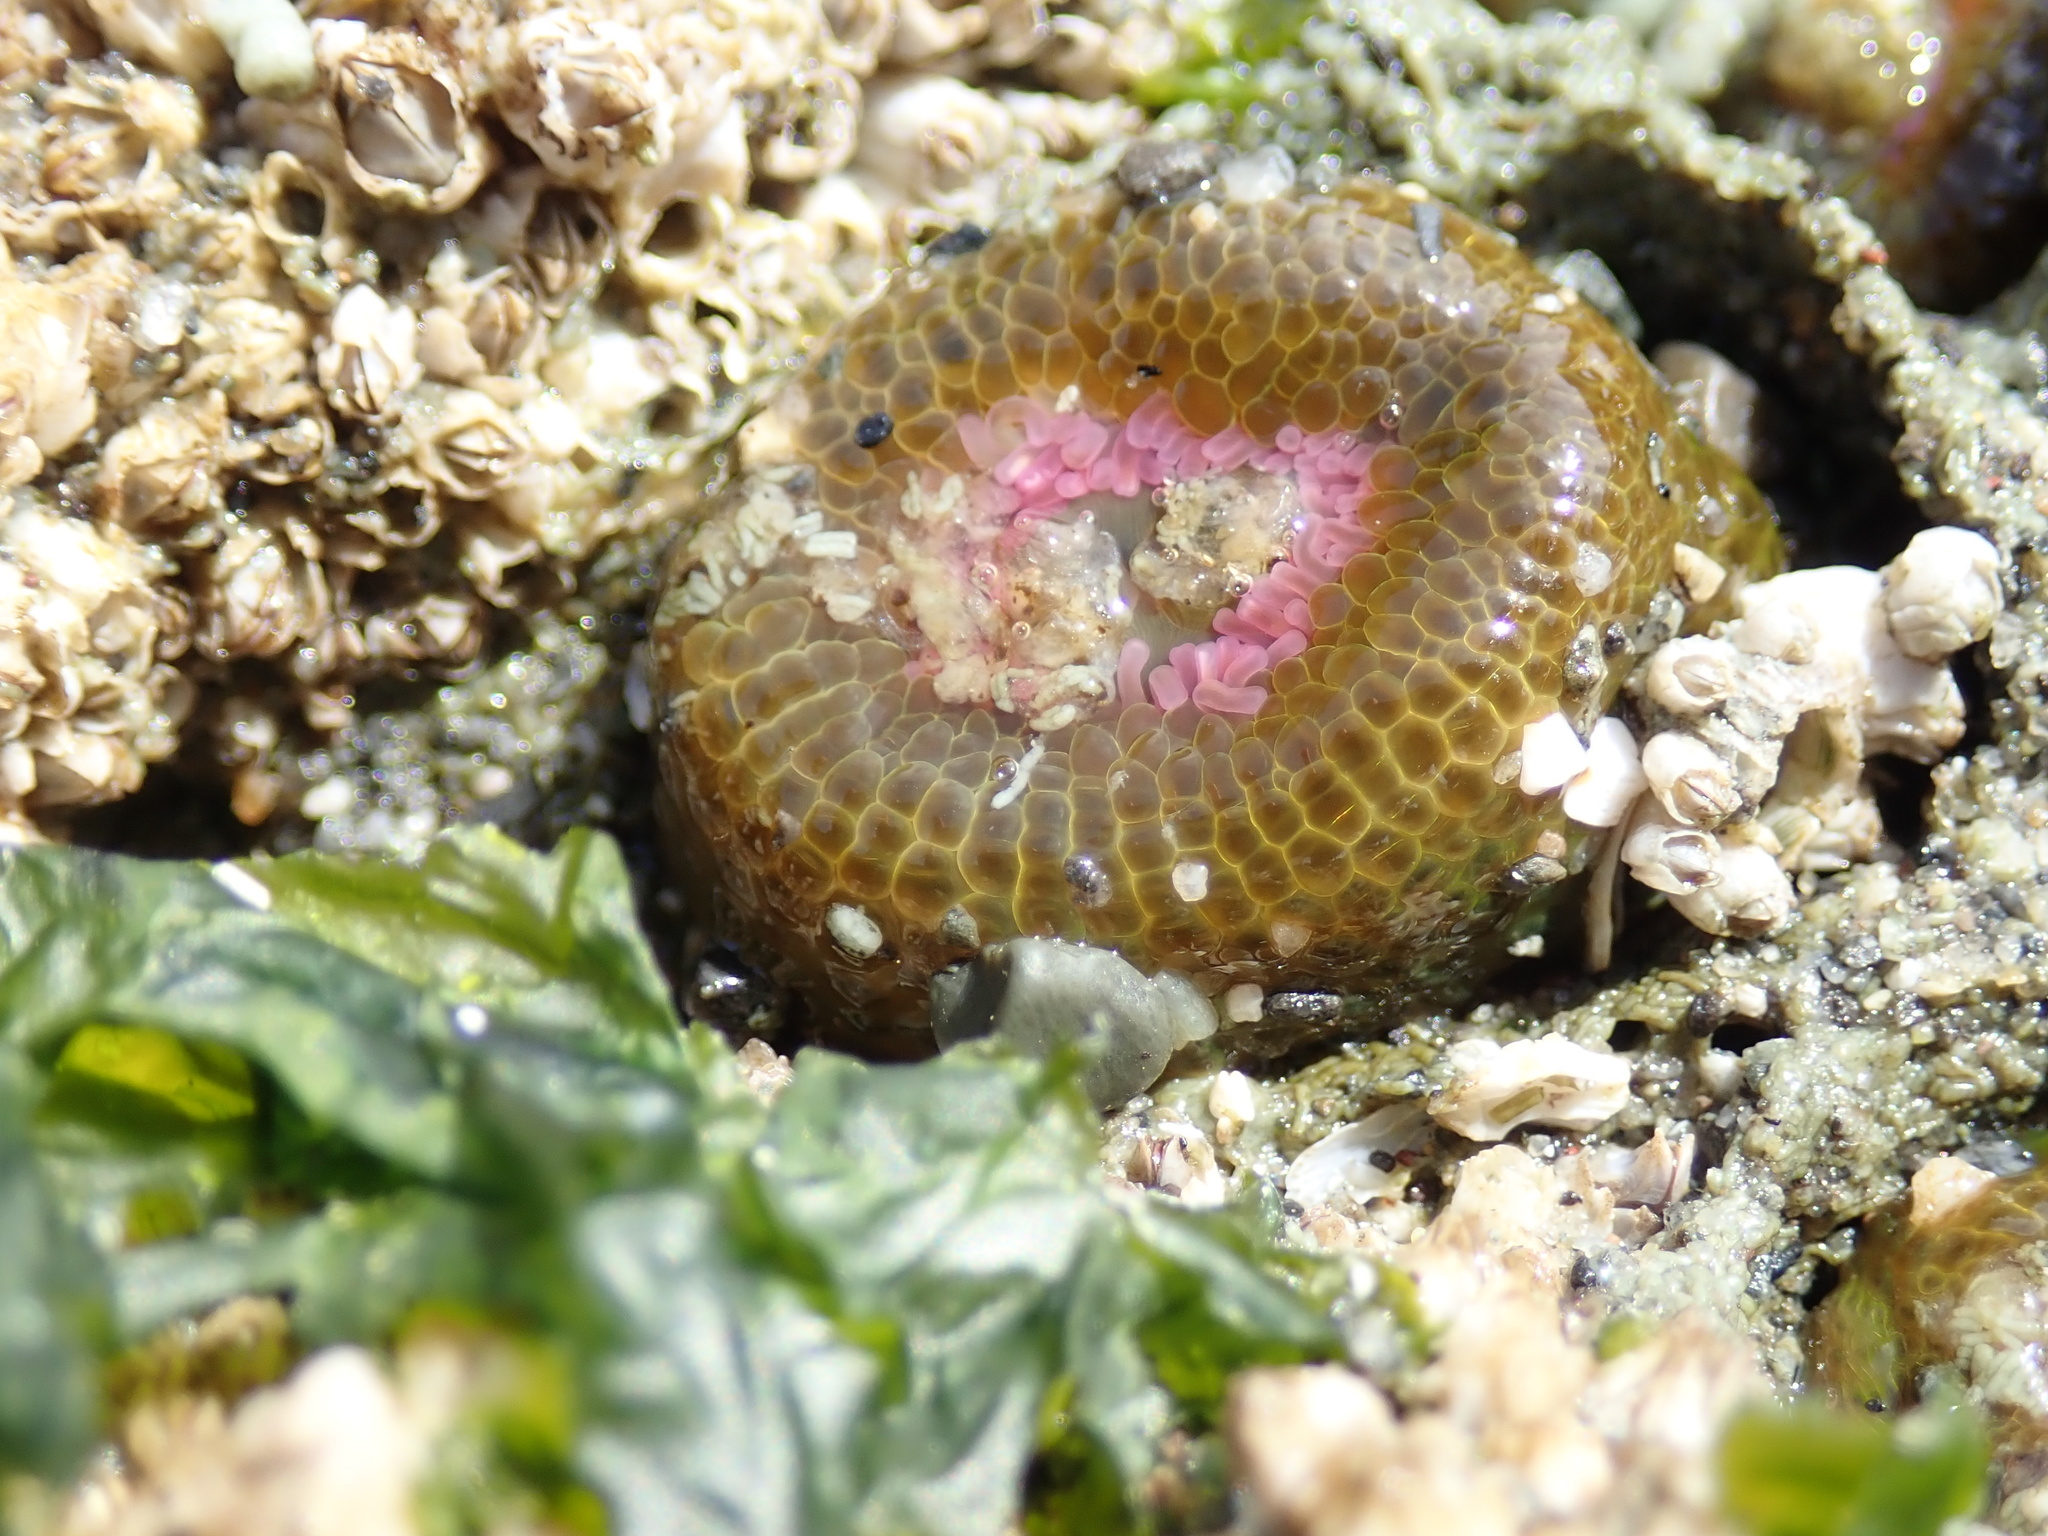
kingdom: Animalia
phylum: Cnidaria
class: Anthozoa
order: Actiniaria
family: Actiniidae
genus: Anthopleura
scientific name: Anthopleura elegantissima
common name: Clonal anemone
